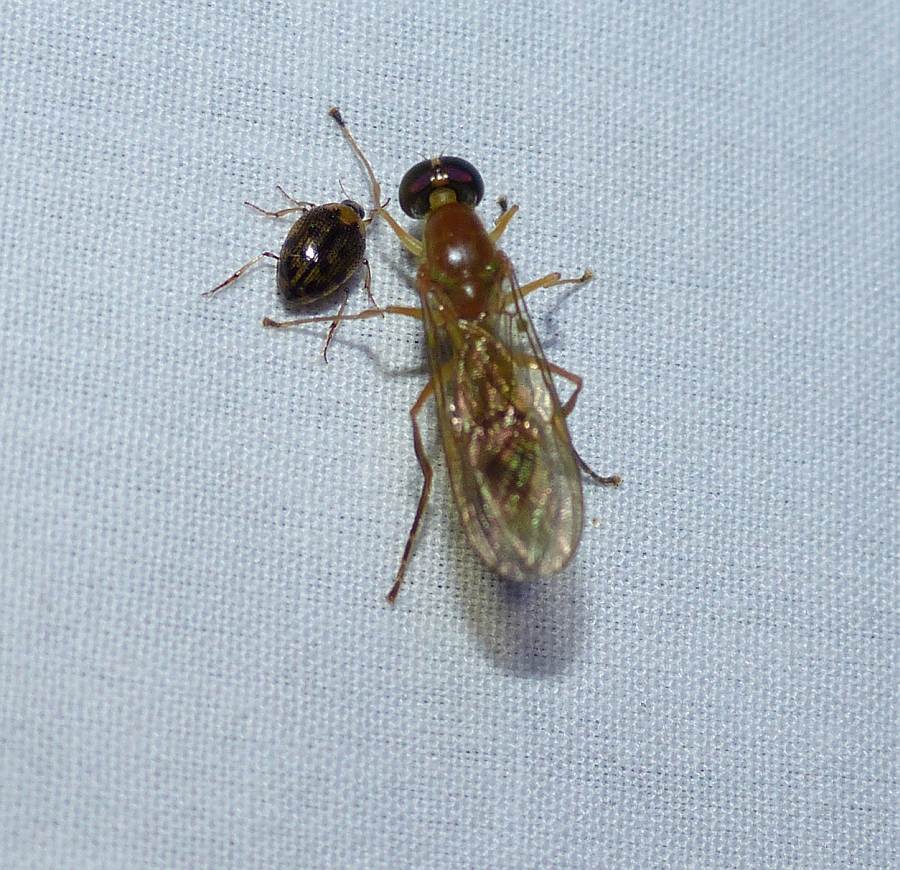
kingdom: Animalia
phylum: Arthropoda
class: Insecta
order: Diptera
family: Stratiomyidae
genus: Ptecticus
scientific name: Ptecticus trivittatus
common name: Compost fly
